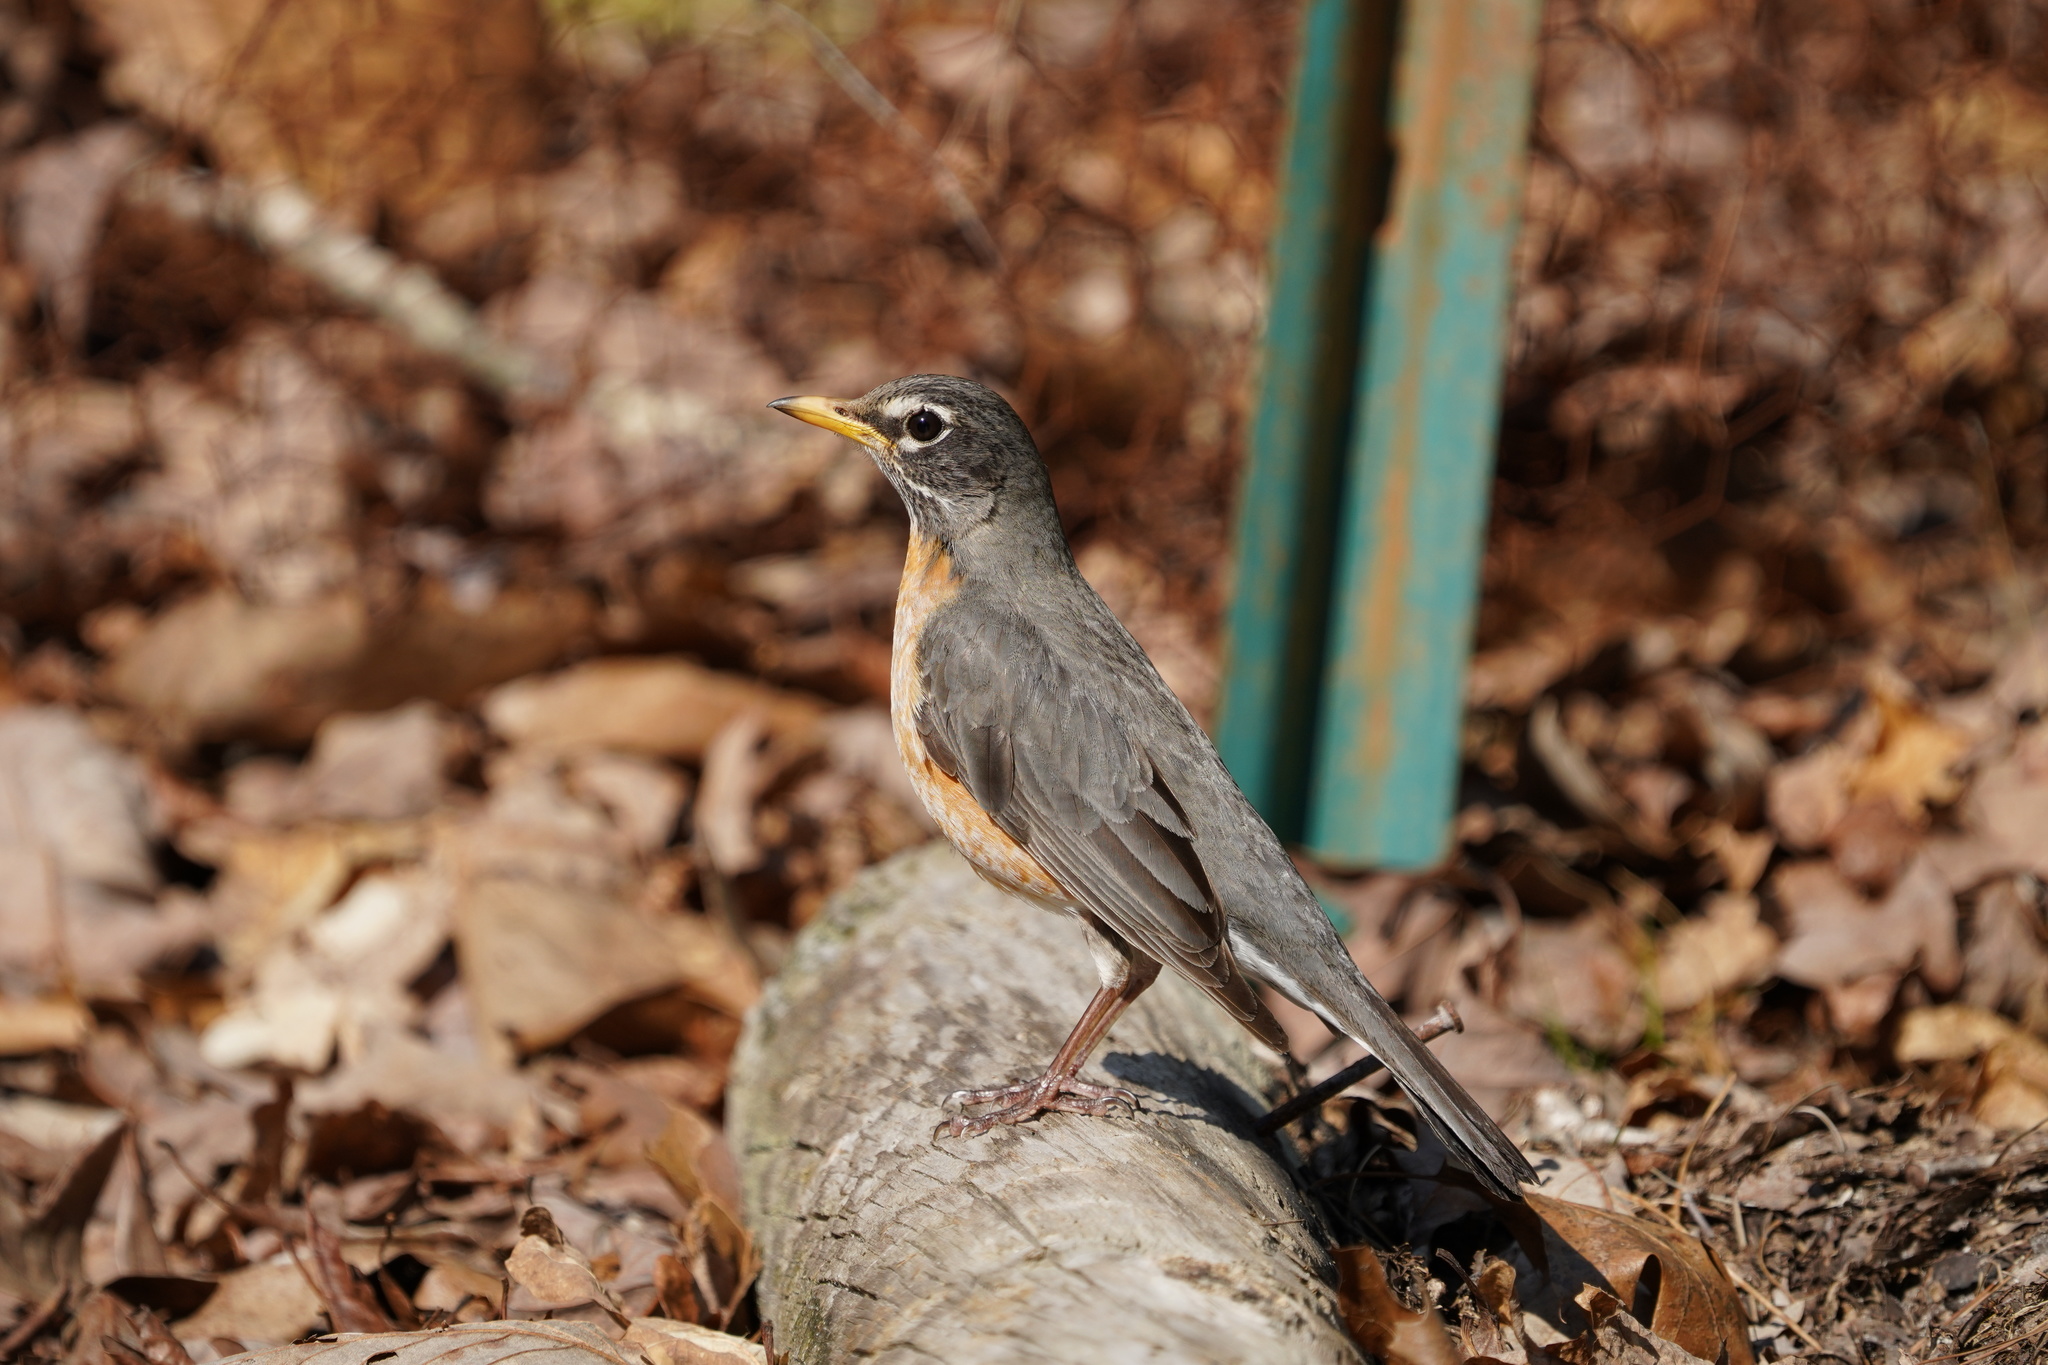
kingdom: Animalia
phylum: Chordata
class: Aves
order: Passeriformes
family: Turdidae
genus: Turdus
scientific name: Turdus migratorius
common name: American robin
